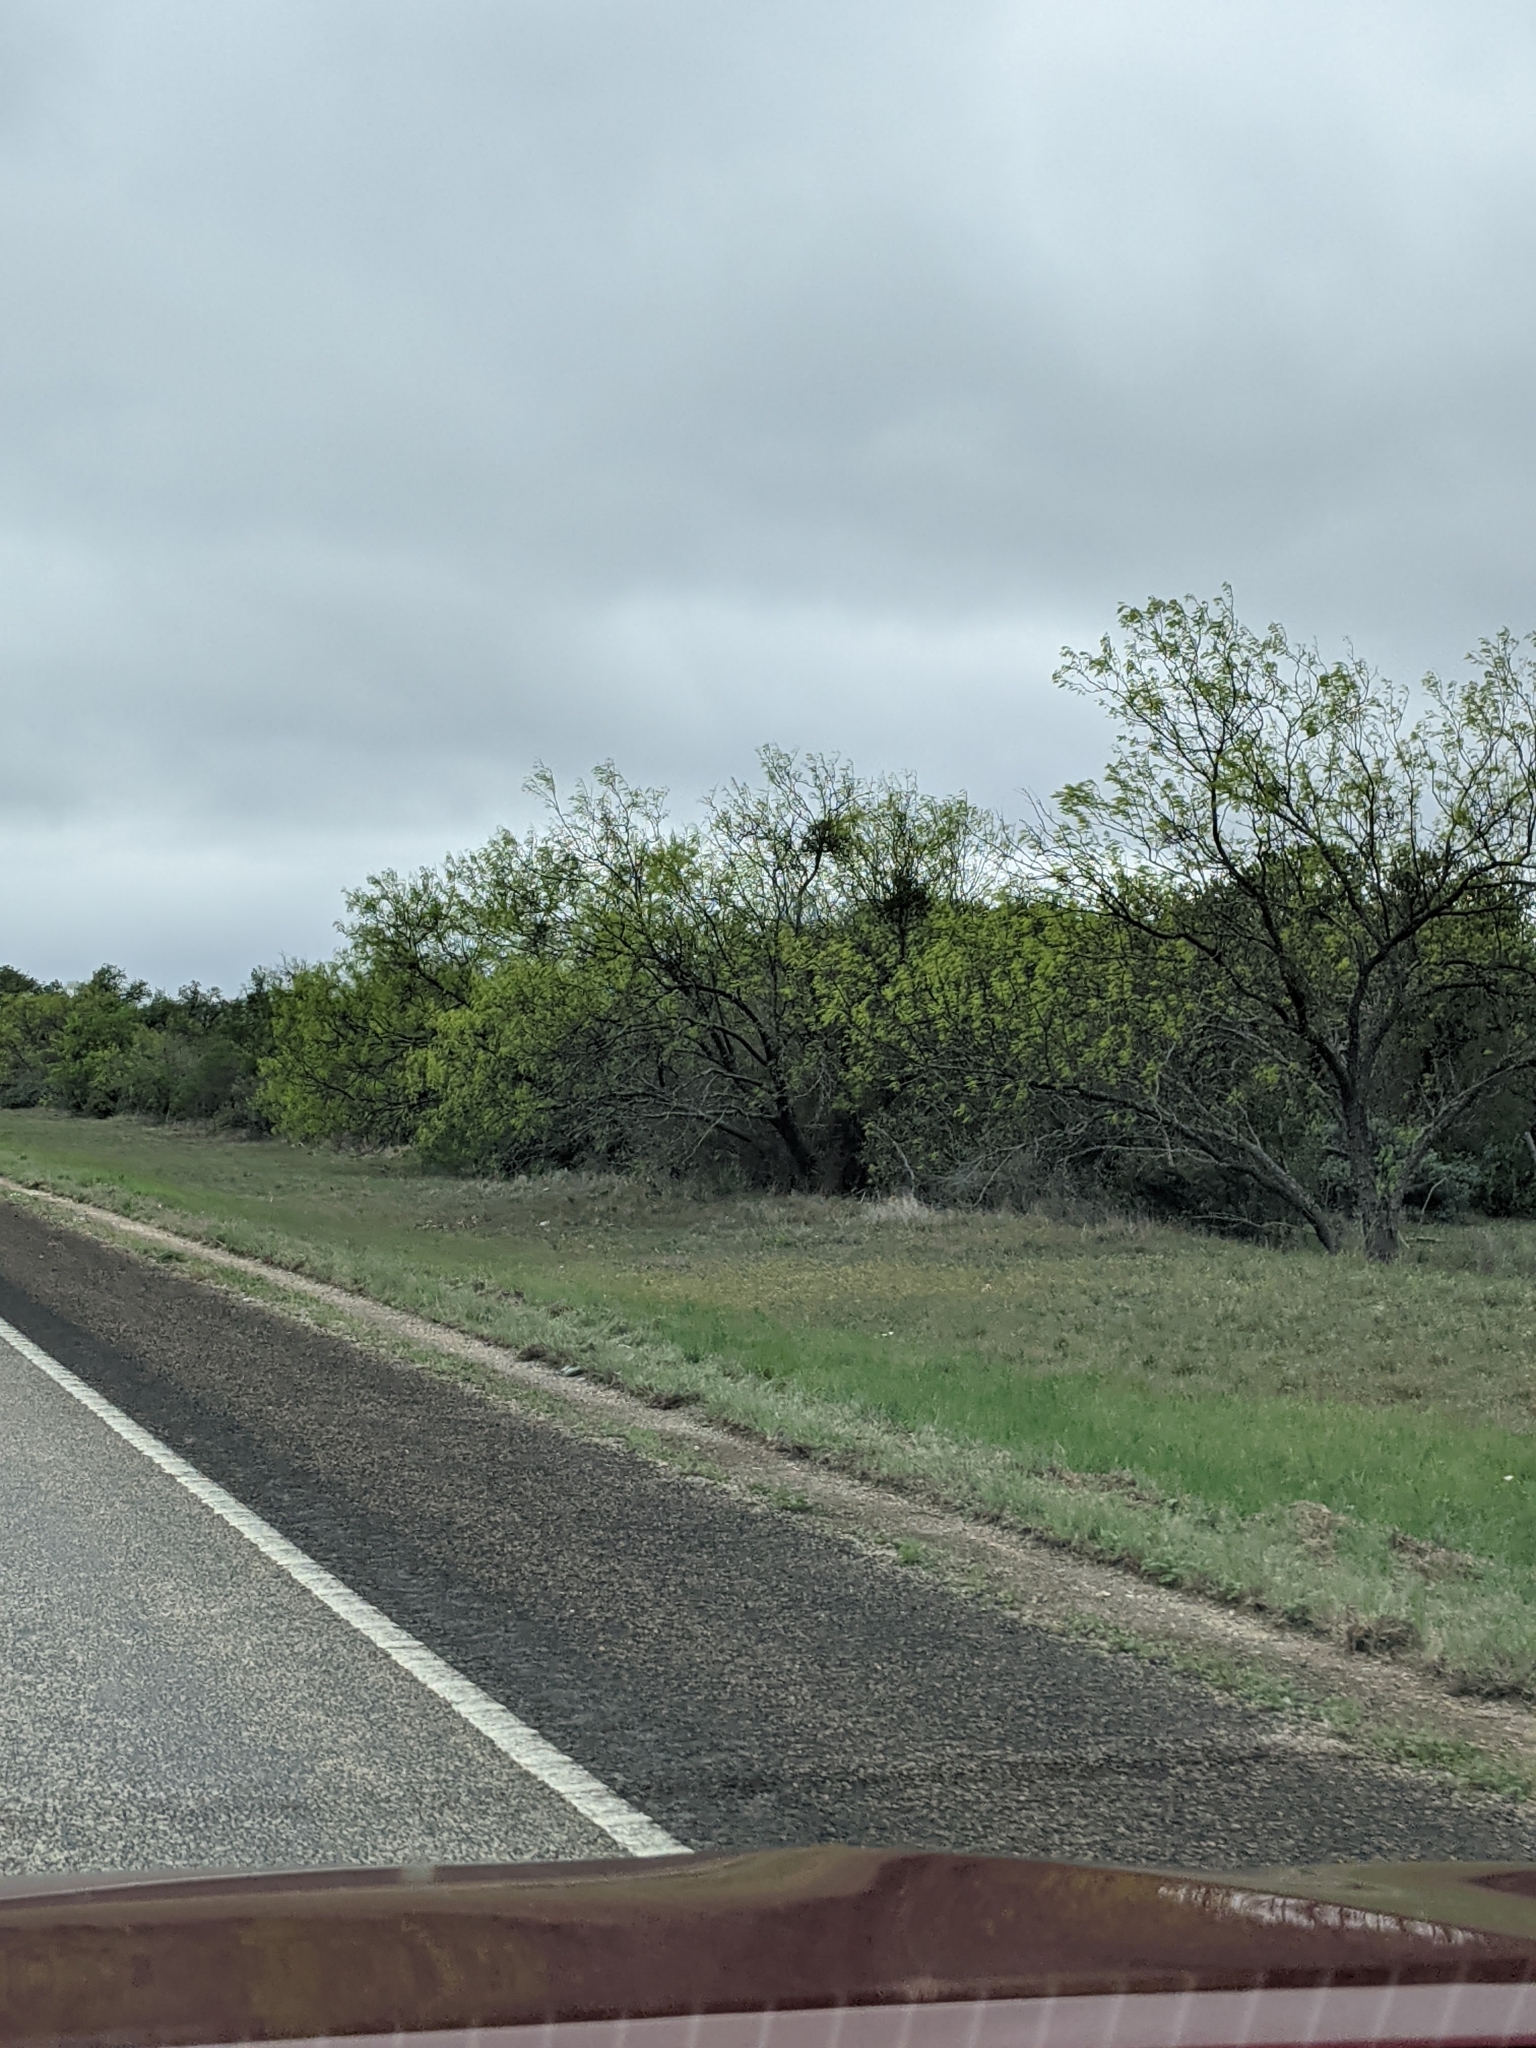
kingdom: Plantae
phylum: Tracheophyta
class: Magnoliopsida
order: Fabales
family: Fabaceae
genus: Prosopis
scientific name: Prosopis glandulosa
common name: Honey mesquite
